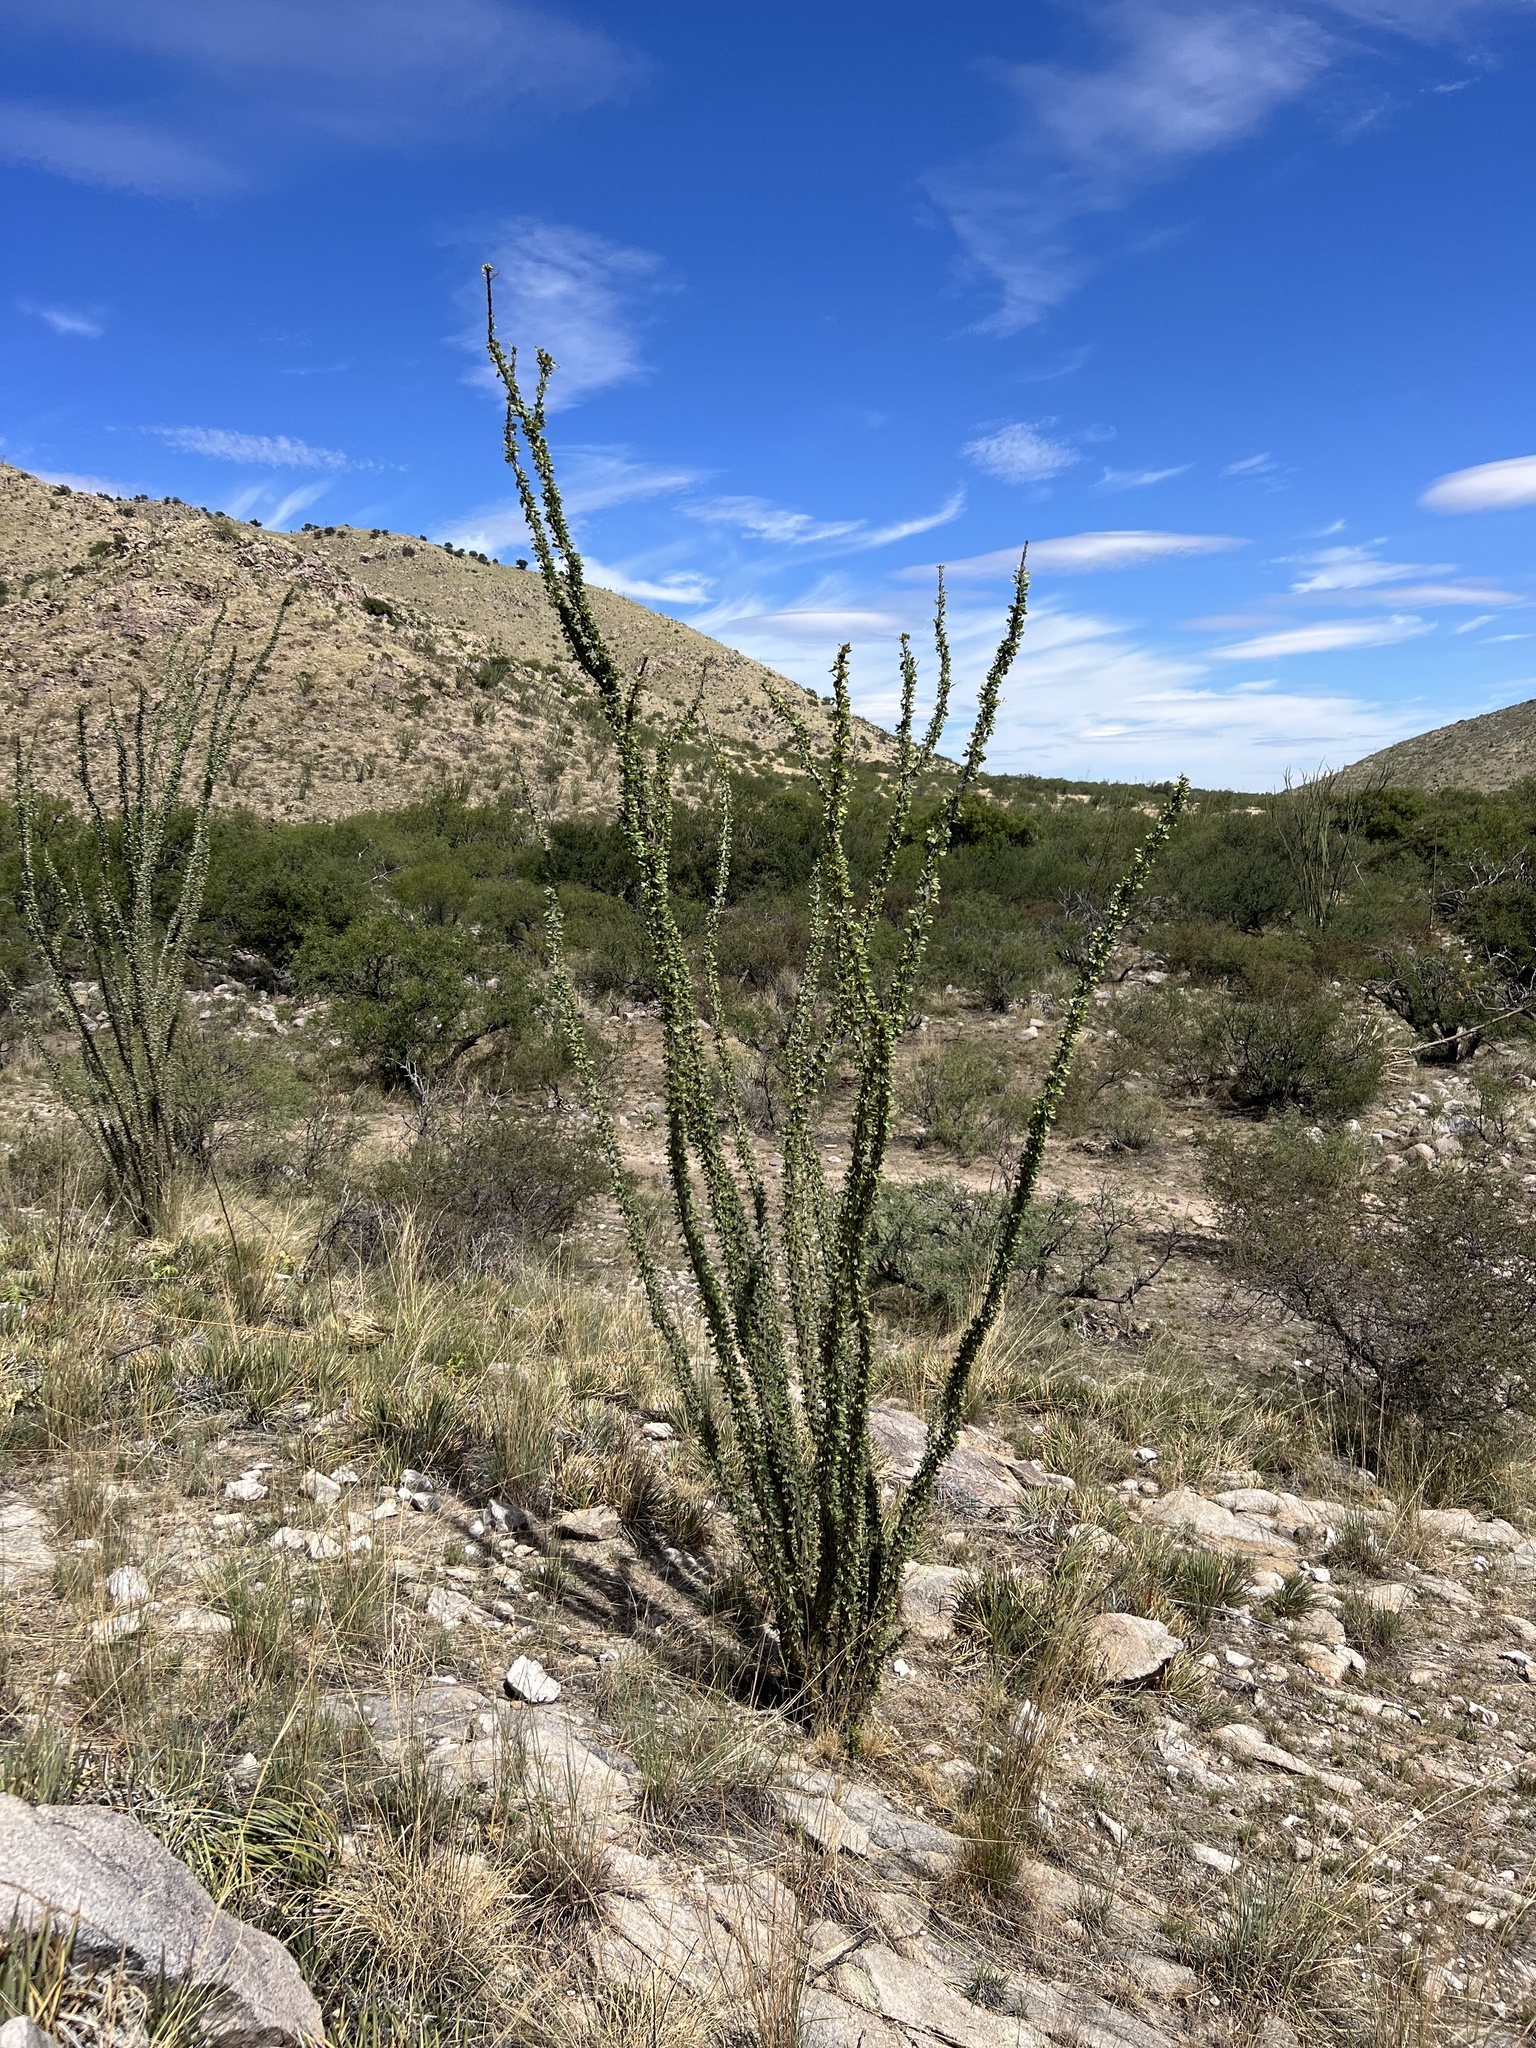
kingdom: Plantae
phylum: Tracheophyta
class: Magnoliopsida
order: Ericales
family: Fouquieriaceae
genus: Fouquieria
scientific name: Fouquieria splendens
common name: Vine-cactus
